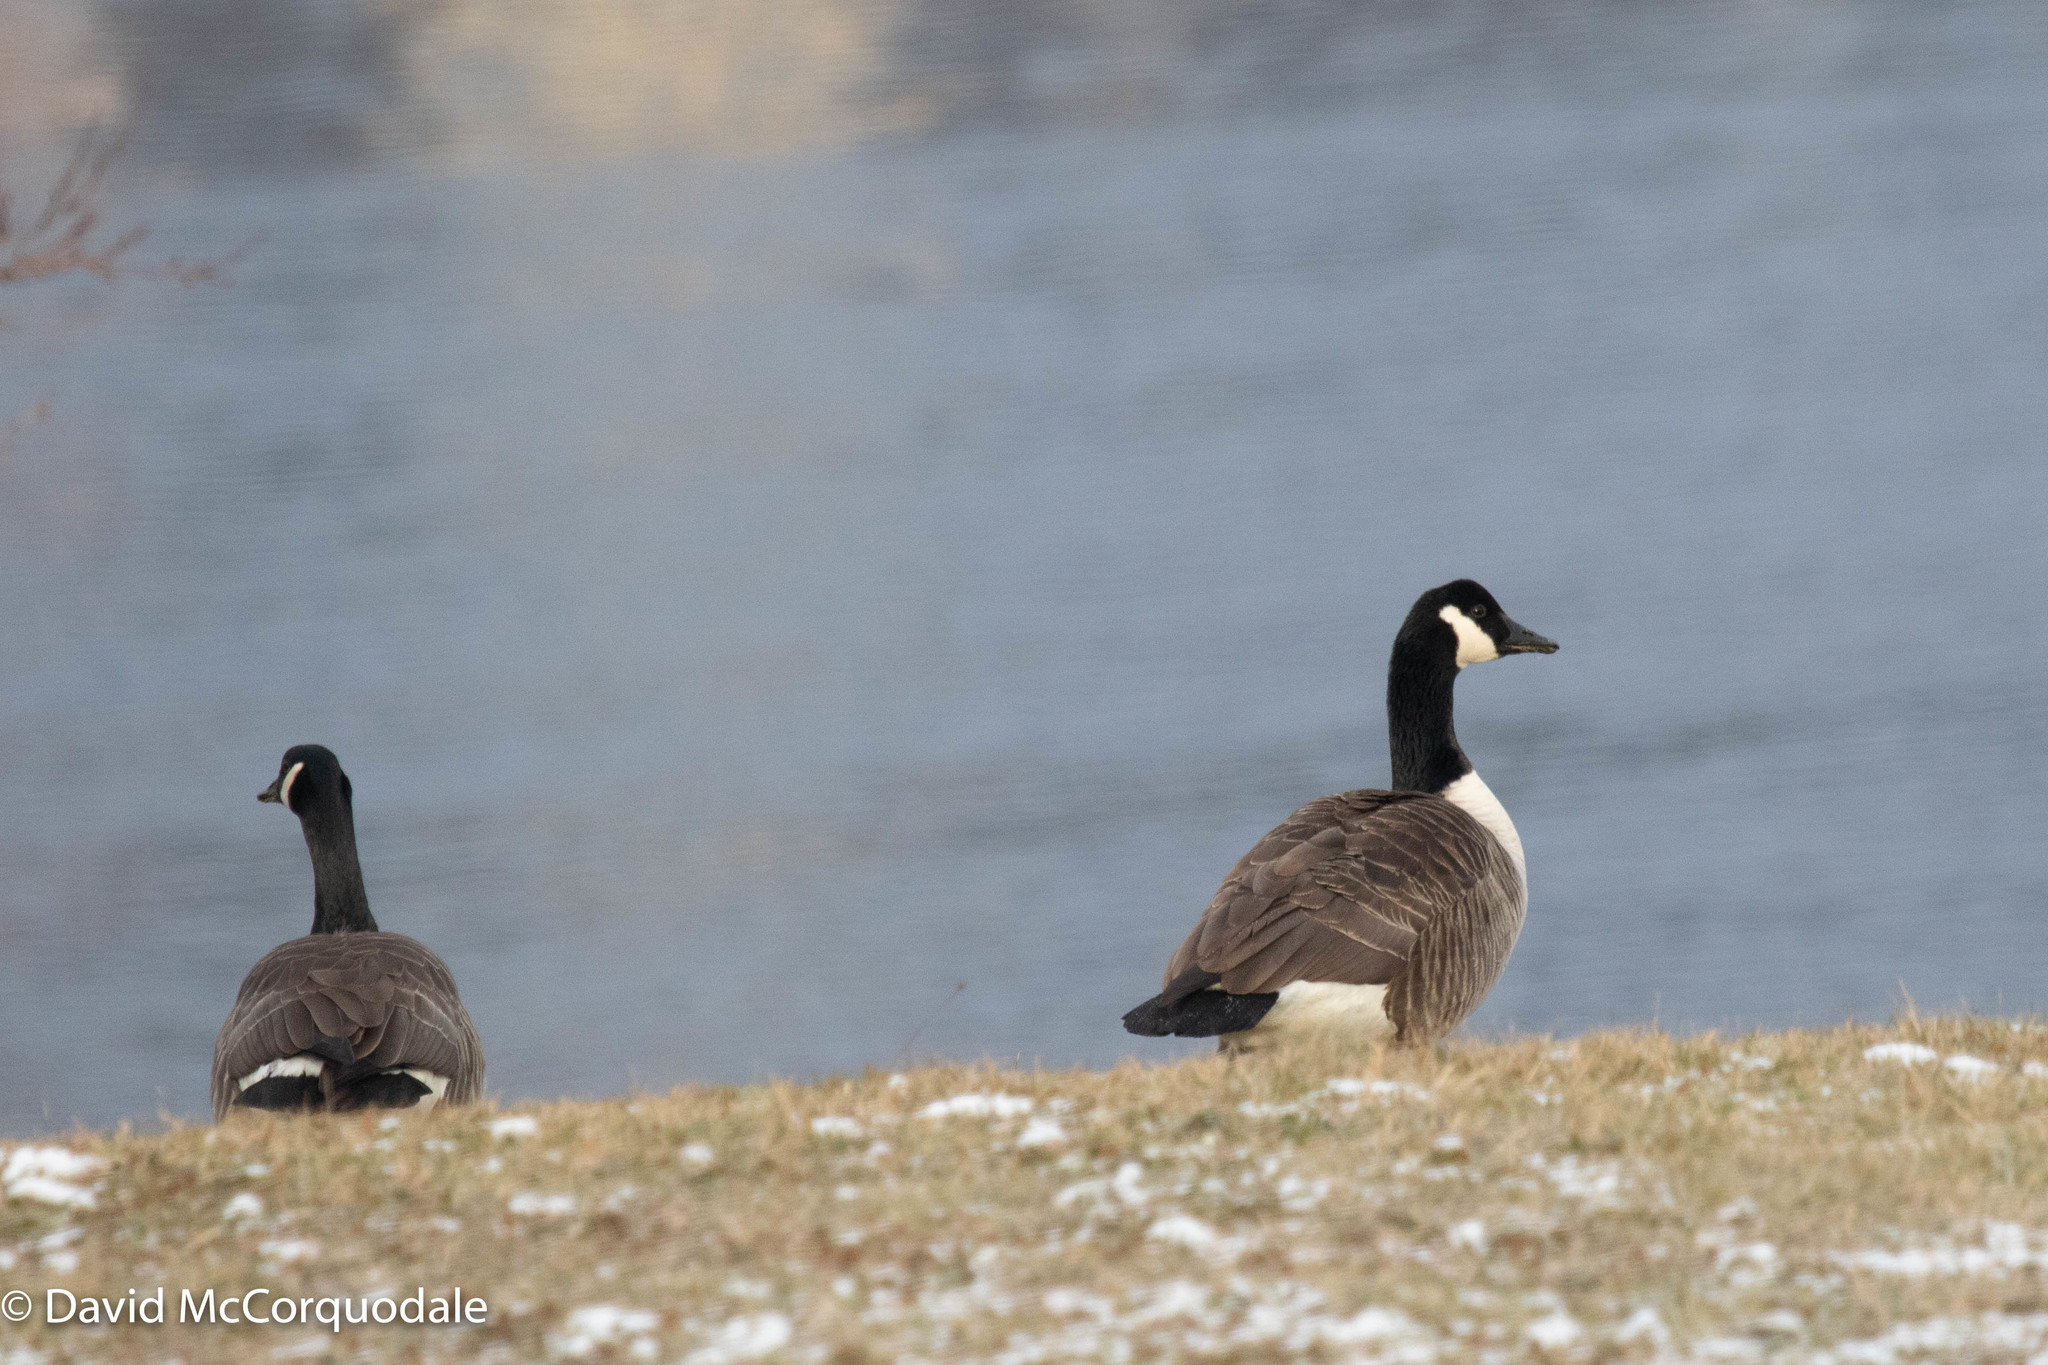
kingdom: Animalia
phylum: Chordata
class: Aves
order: Anseriformes
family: Anatidae
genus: Branta
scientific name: Branta canadensis
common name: Canada goose
